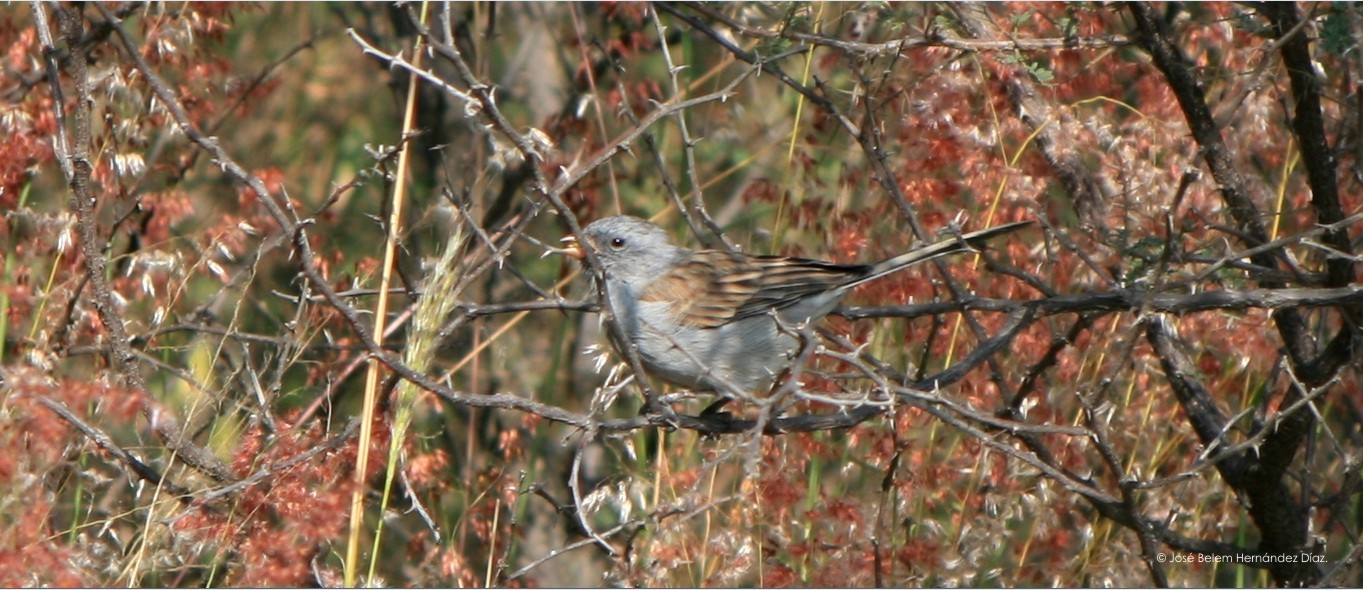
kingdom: Animalia
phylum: Chordata
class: Aves
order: Passeriformes
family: Passerellidae
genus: Spizella
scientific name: Spizella atrogularis
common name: Black-chinned sparrow
